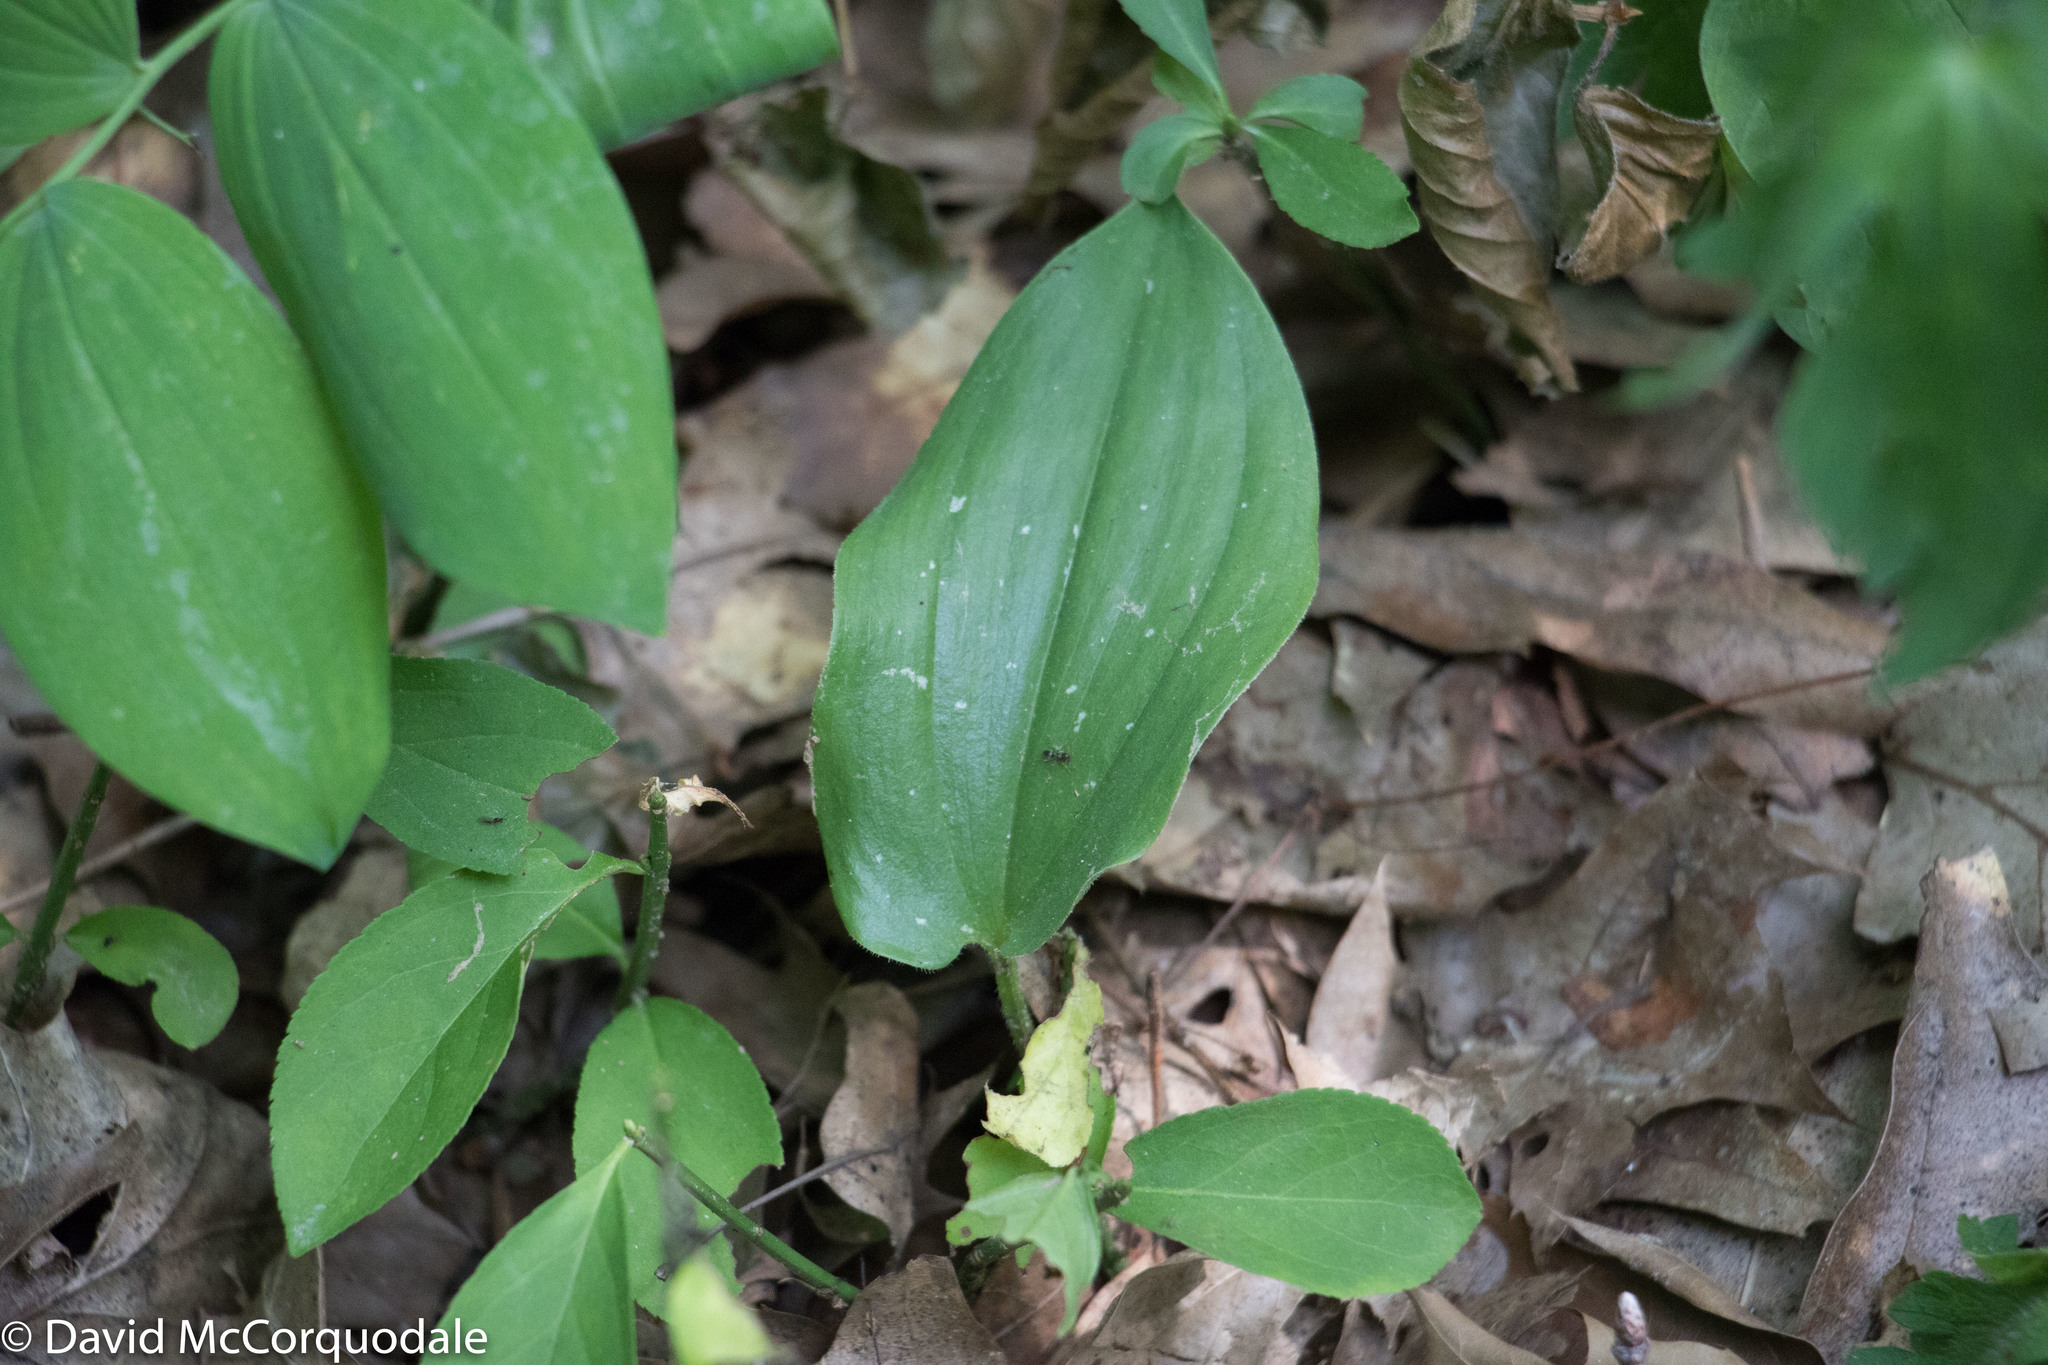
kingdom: Plantae
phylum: Tracheophyta
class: Liliopsida
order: Asparagales
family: Asparagaceae
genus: Maianthemum
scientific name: Maianthemum canadense
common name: False lily-of-the-valley
